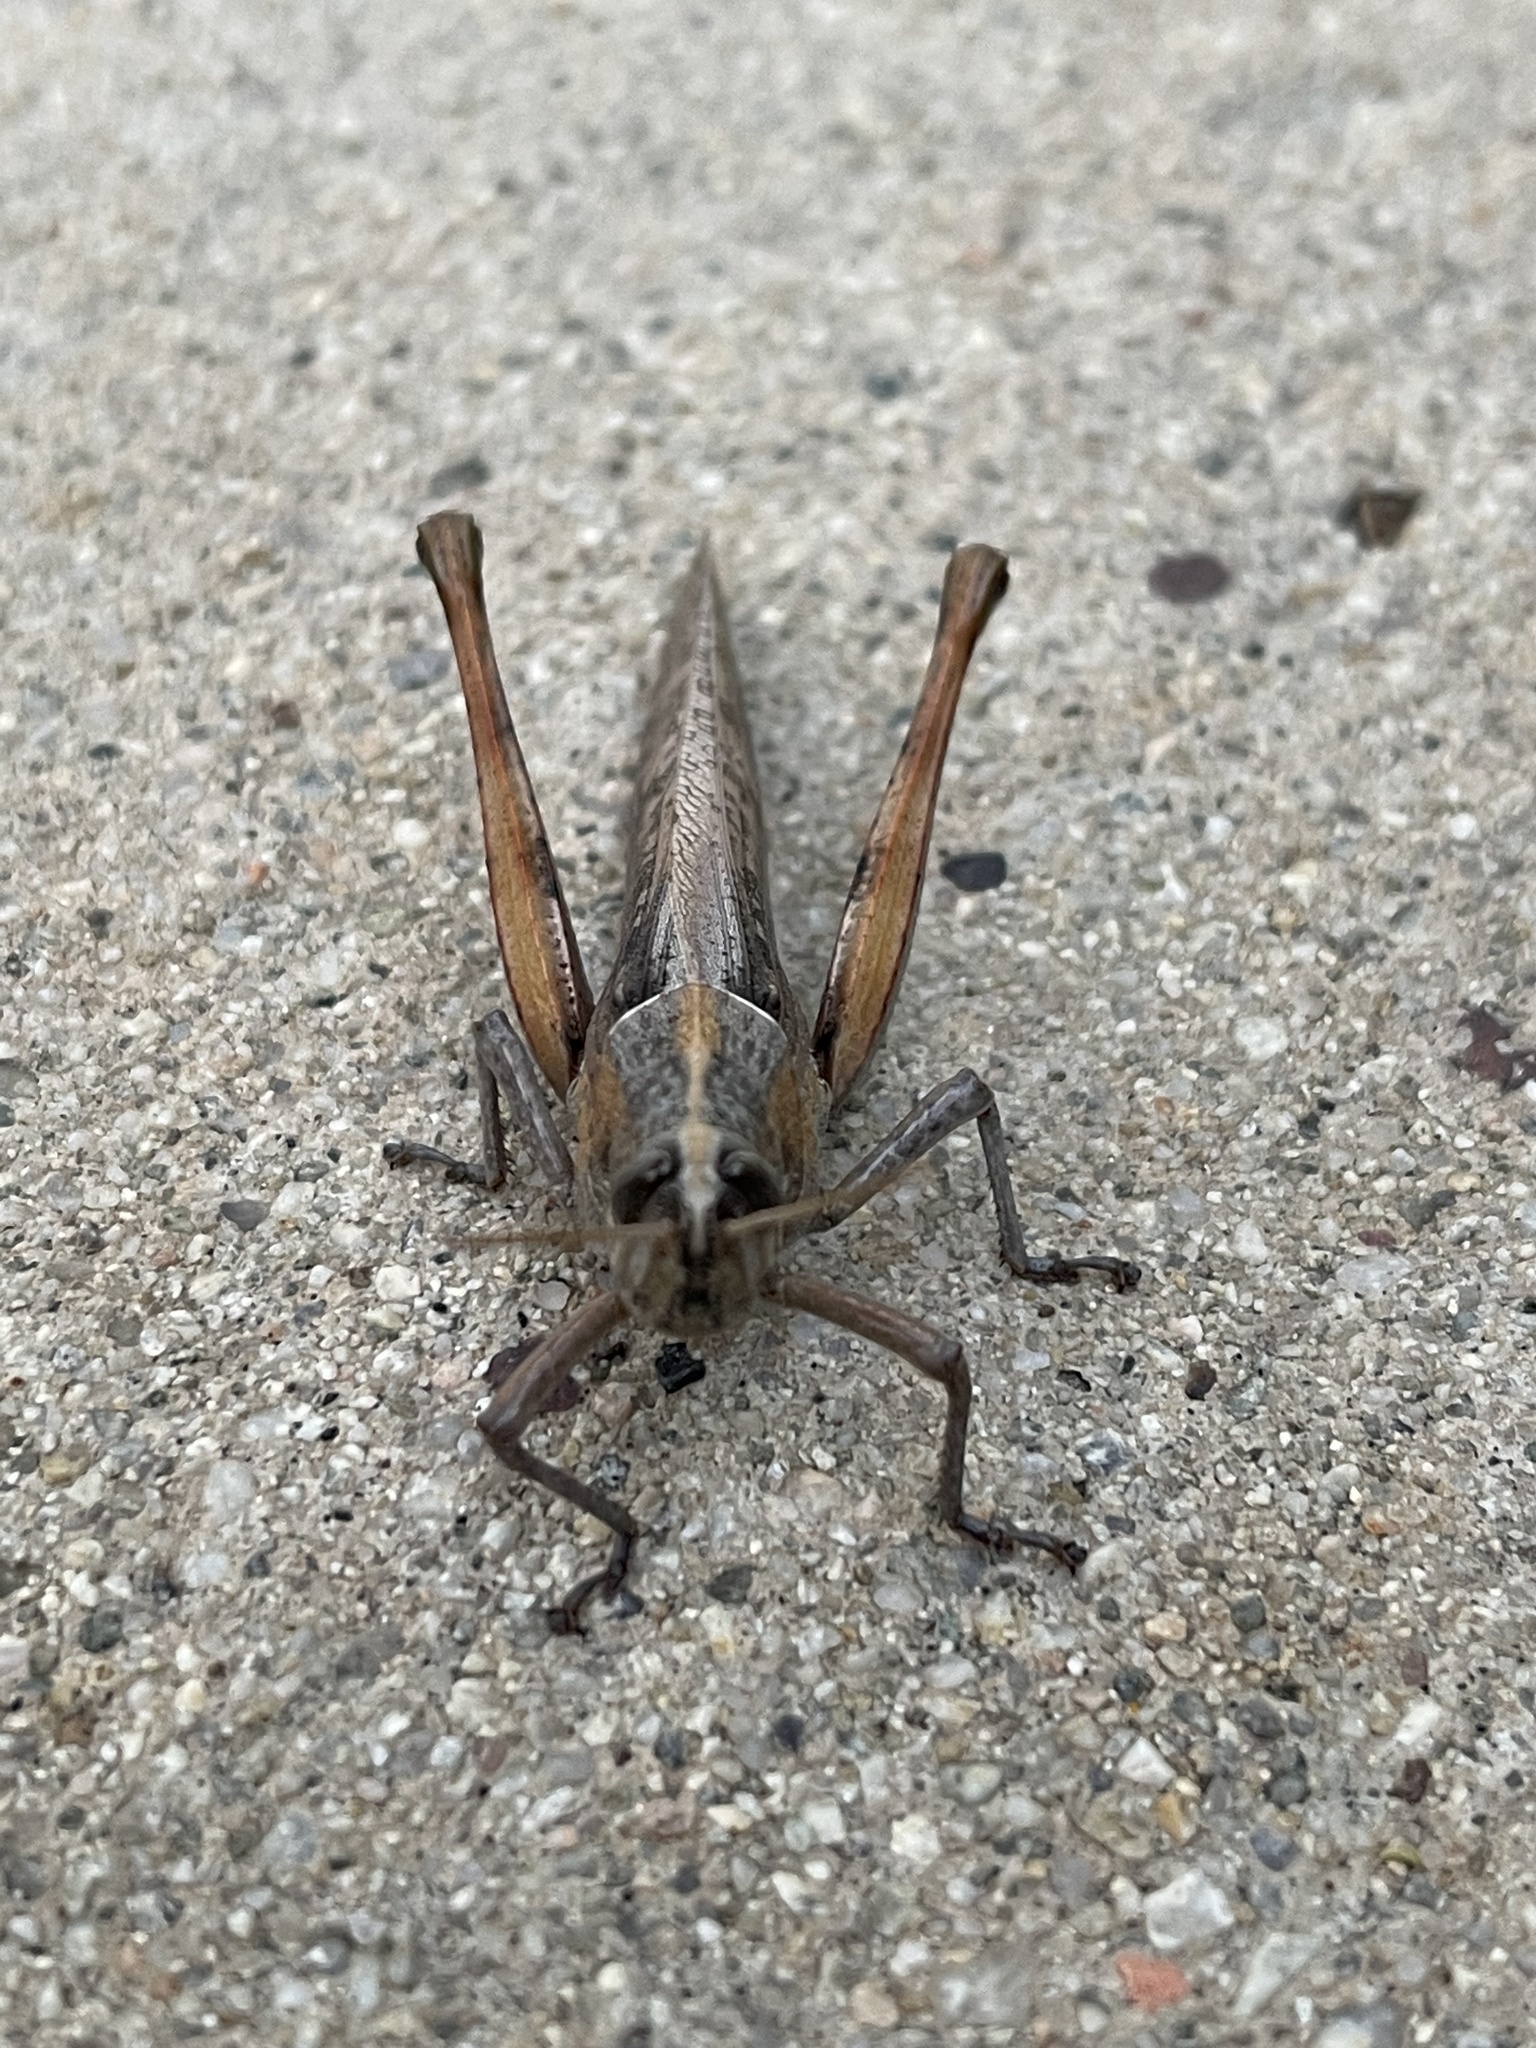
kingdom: Animalia
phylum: Arthropoda
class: Insecta
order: Orthoptera
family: Acrididae
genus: Schistocerca
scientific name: Schistocerca nitens
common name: Vagrant grasshopper
